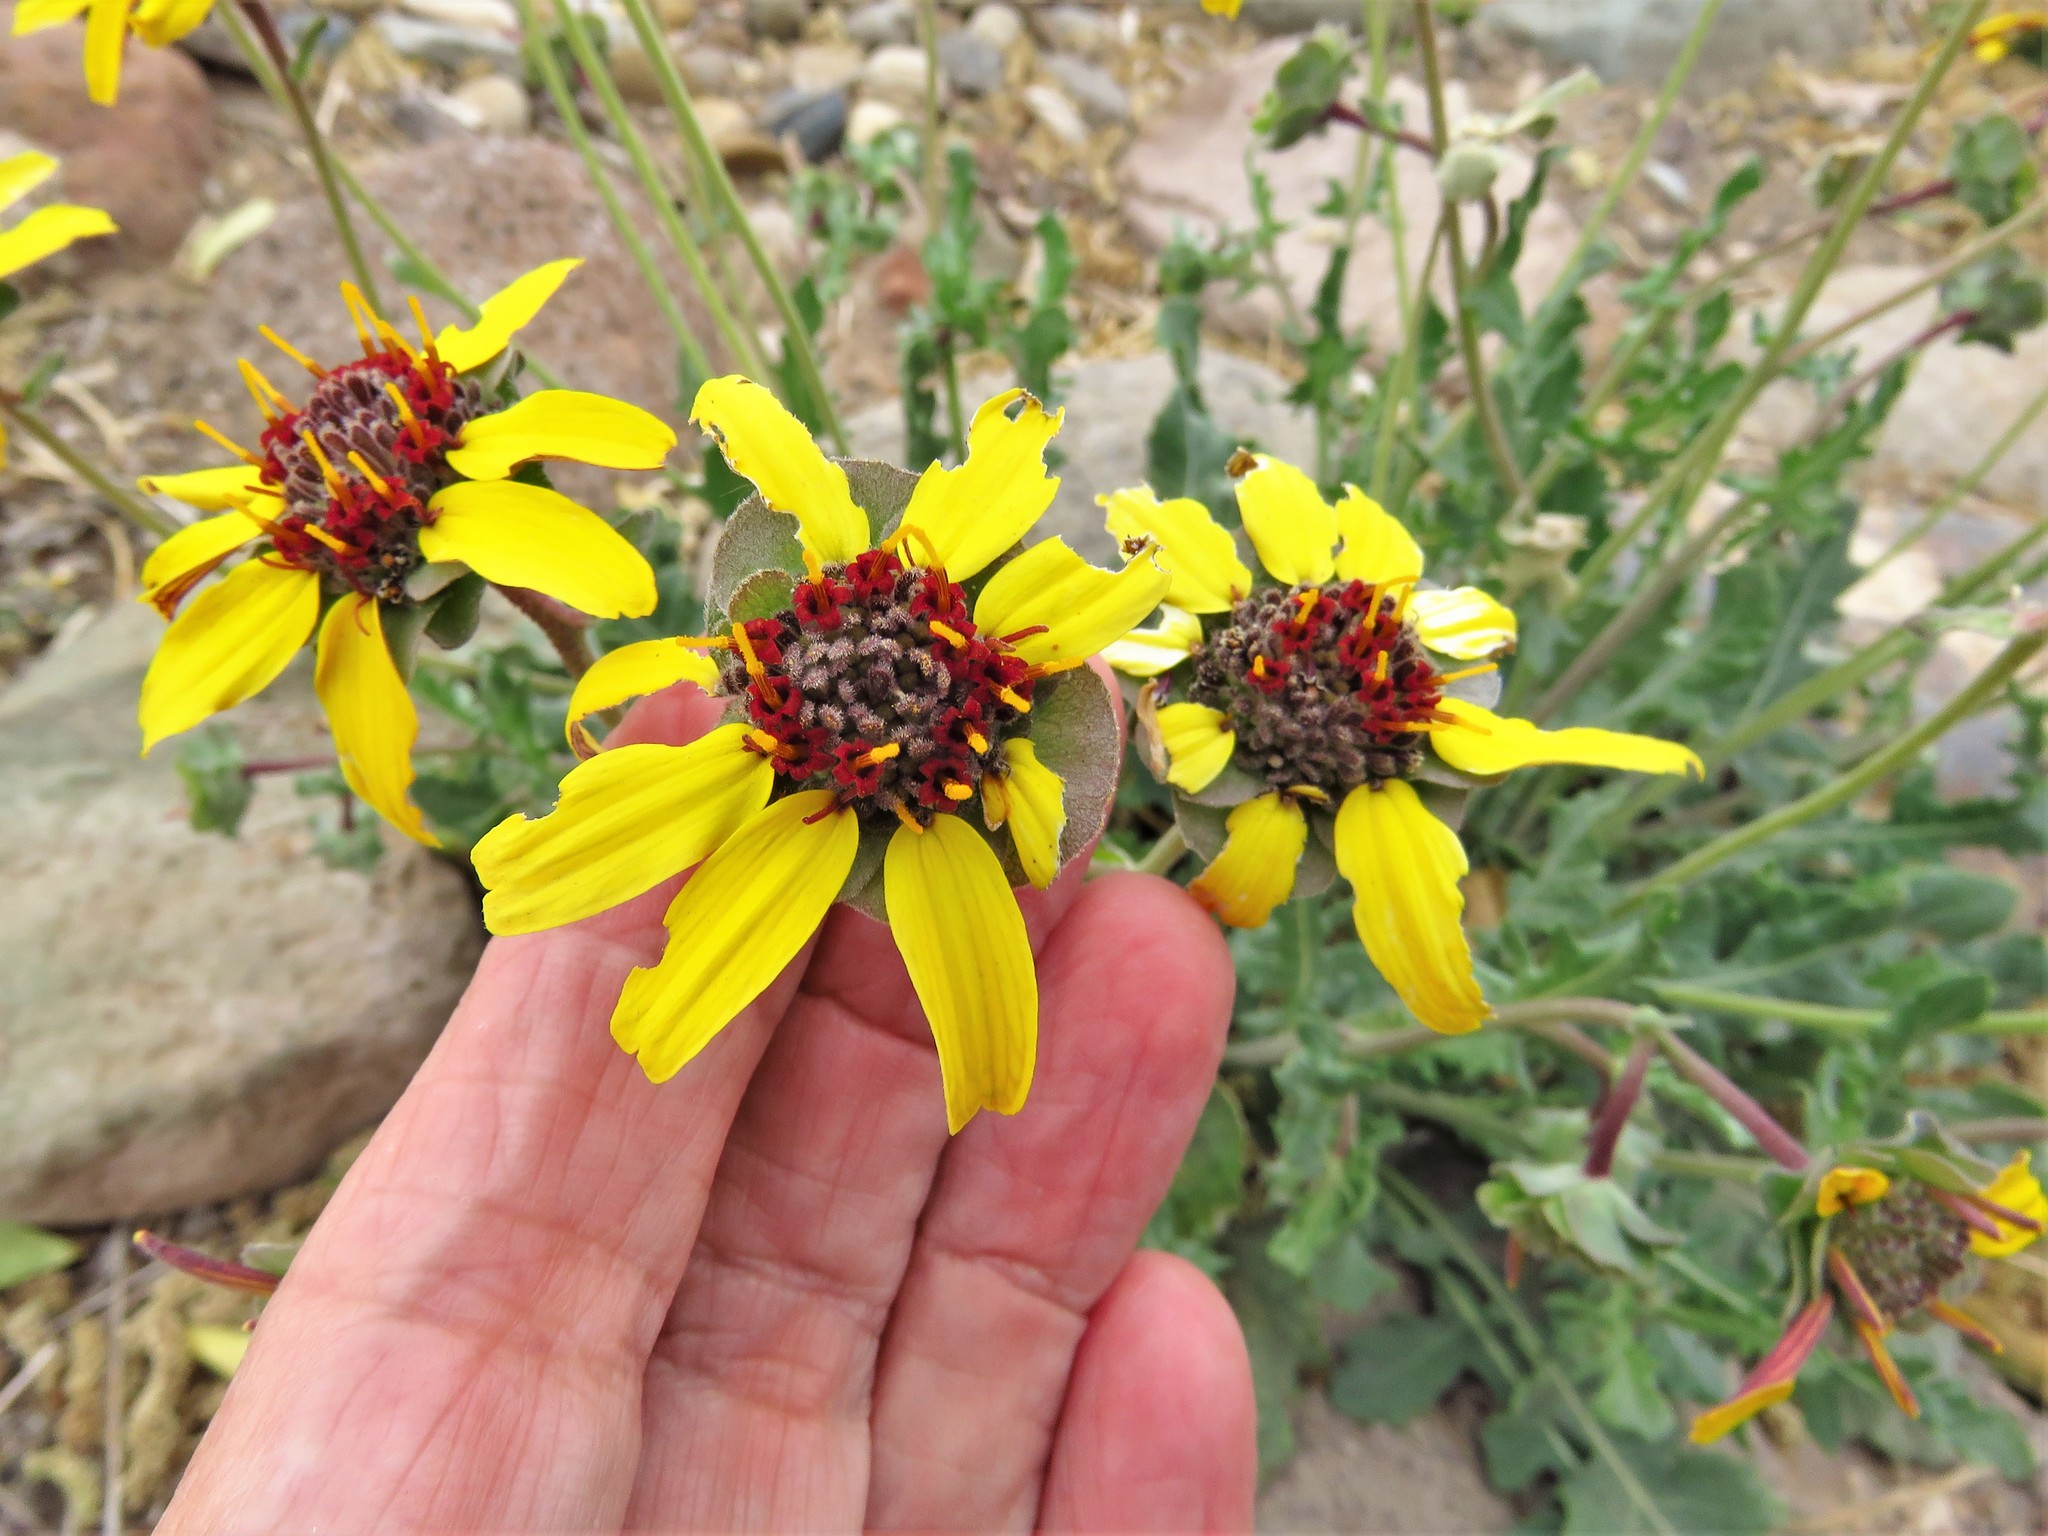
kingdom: Plantae
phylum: Tracheophyta
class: Magnoliopsida
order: Asterales
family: Asteraceae
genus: Berlandiera
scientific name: Berlandiera lyrata
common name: Chocolate-flower
